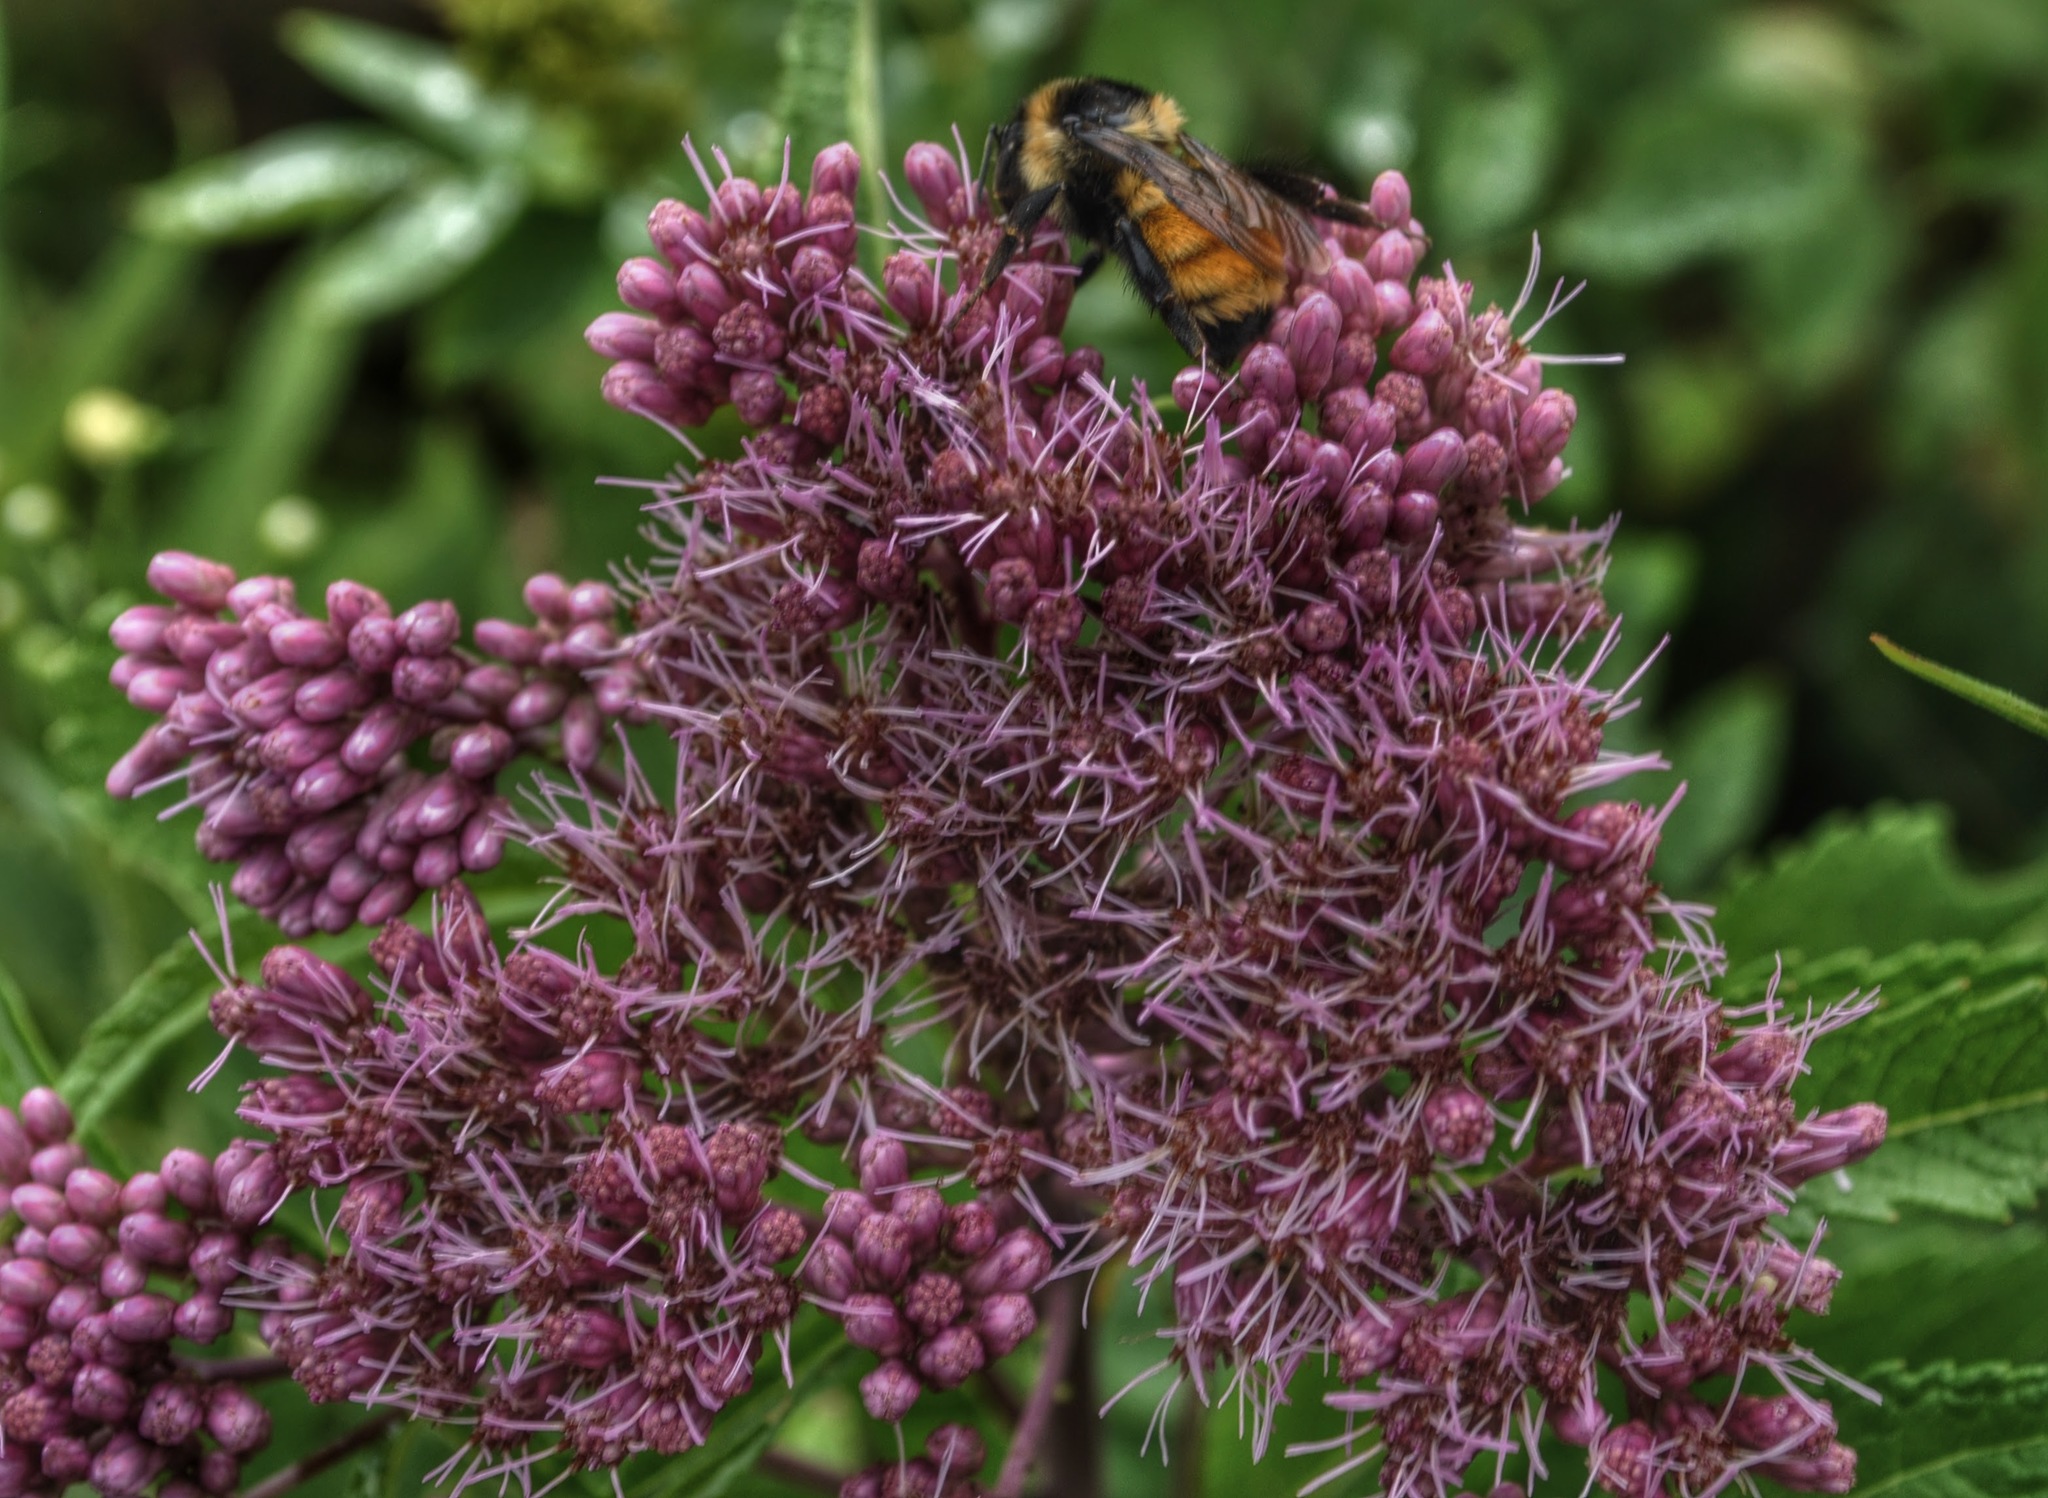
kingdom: Plantae
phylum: Tracheophyta
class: Magnoliopsida
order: Asterales
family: Asteraceae
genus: Eutrochium
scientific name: Eutrochium maculatum
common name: Spotted joe pye weed
